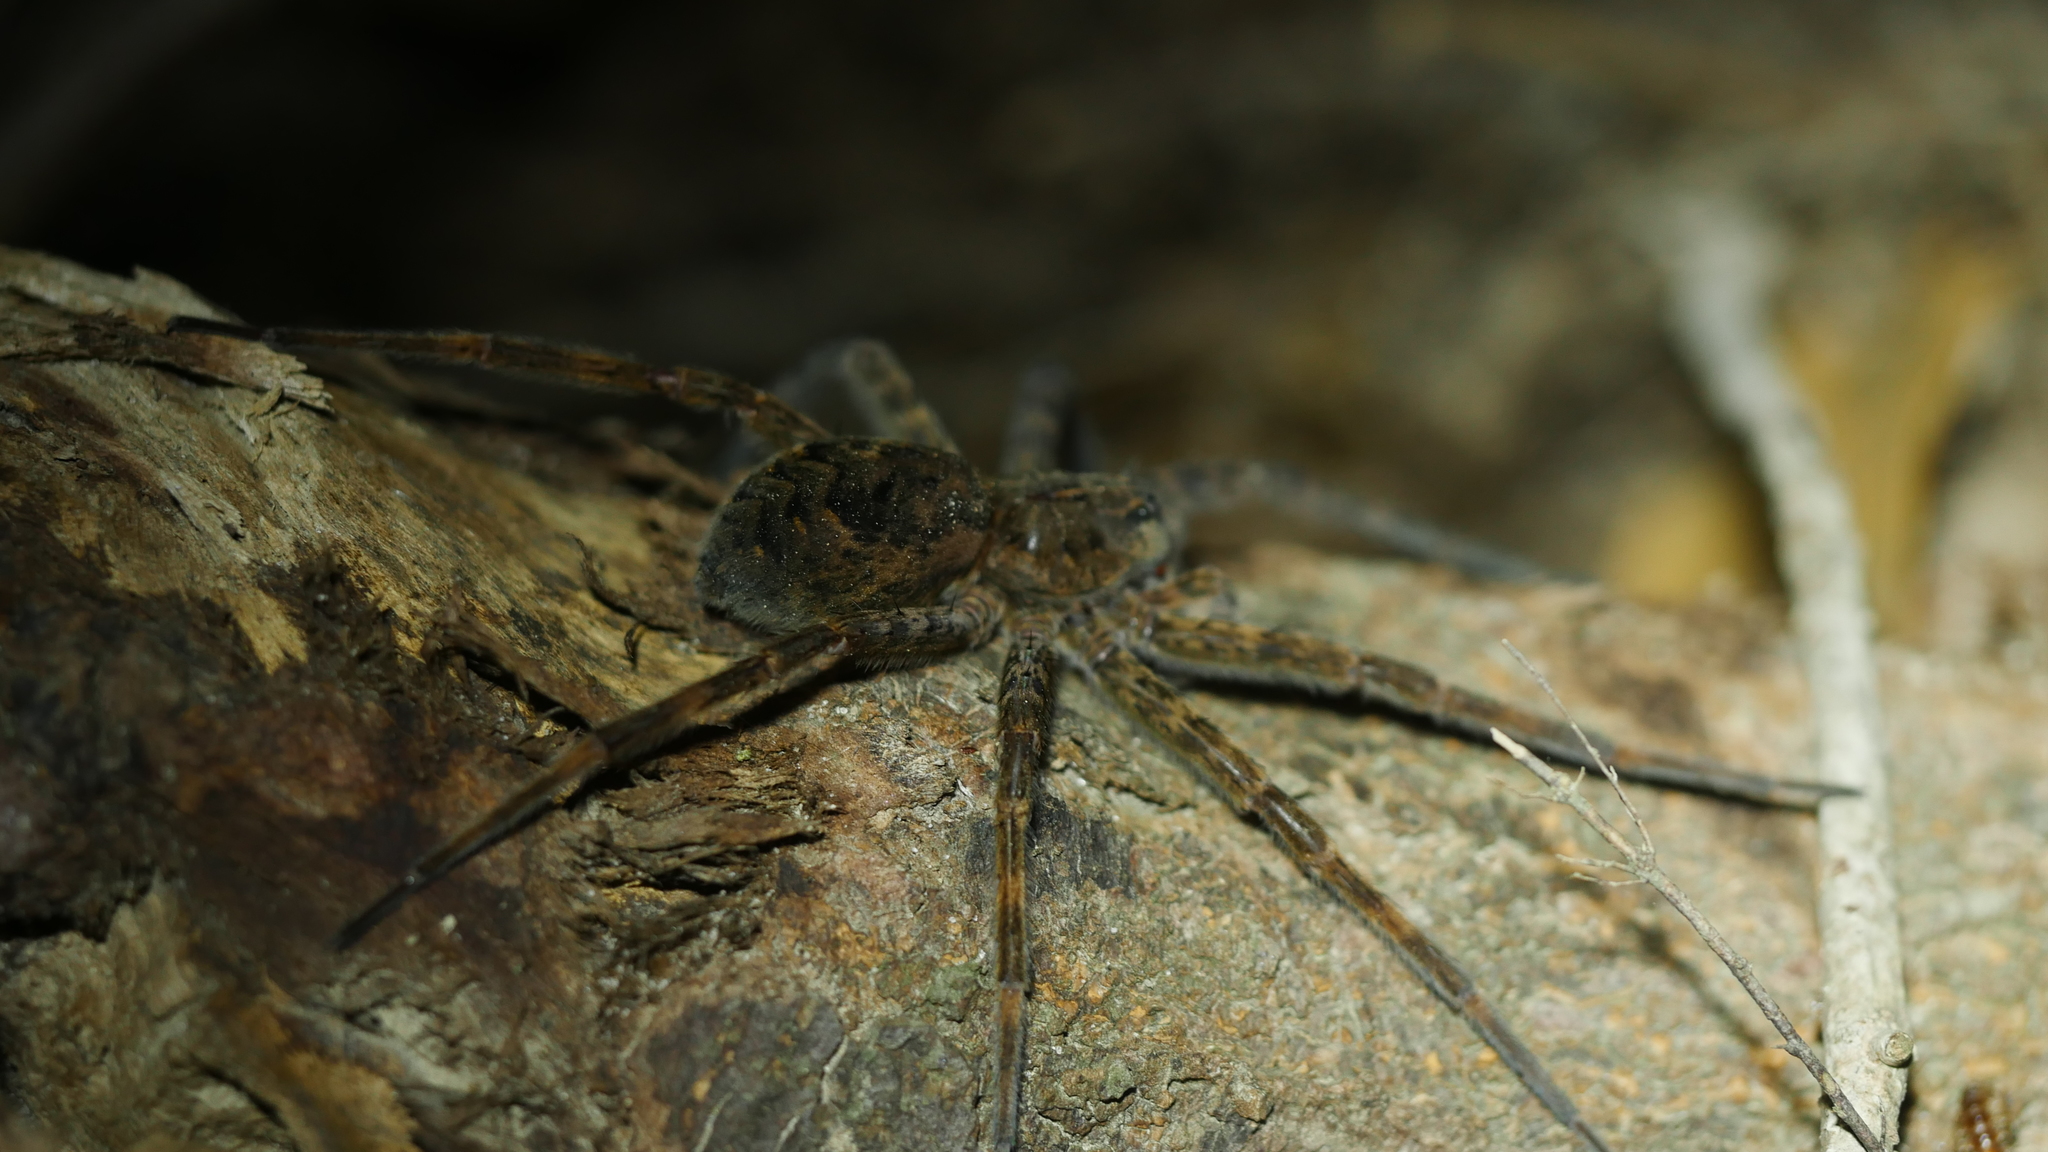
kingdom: Animalia
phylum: Arthropoda
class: Arachnida
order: Araneae
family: Pisauridae
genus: Dolomedes
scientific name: Dolomedes tenebrosus
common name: Dark fishing spider
